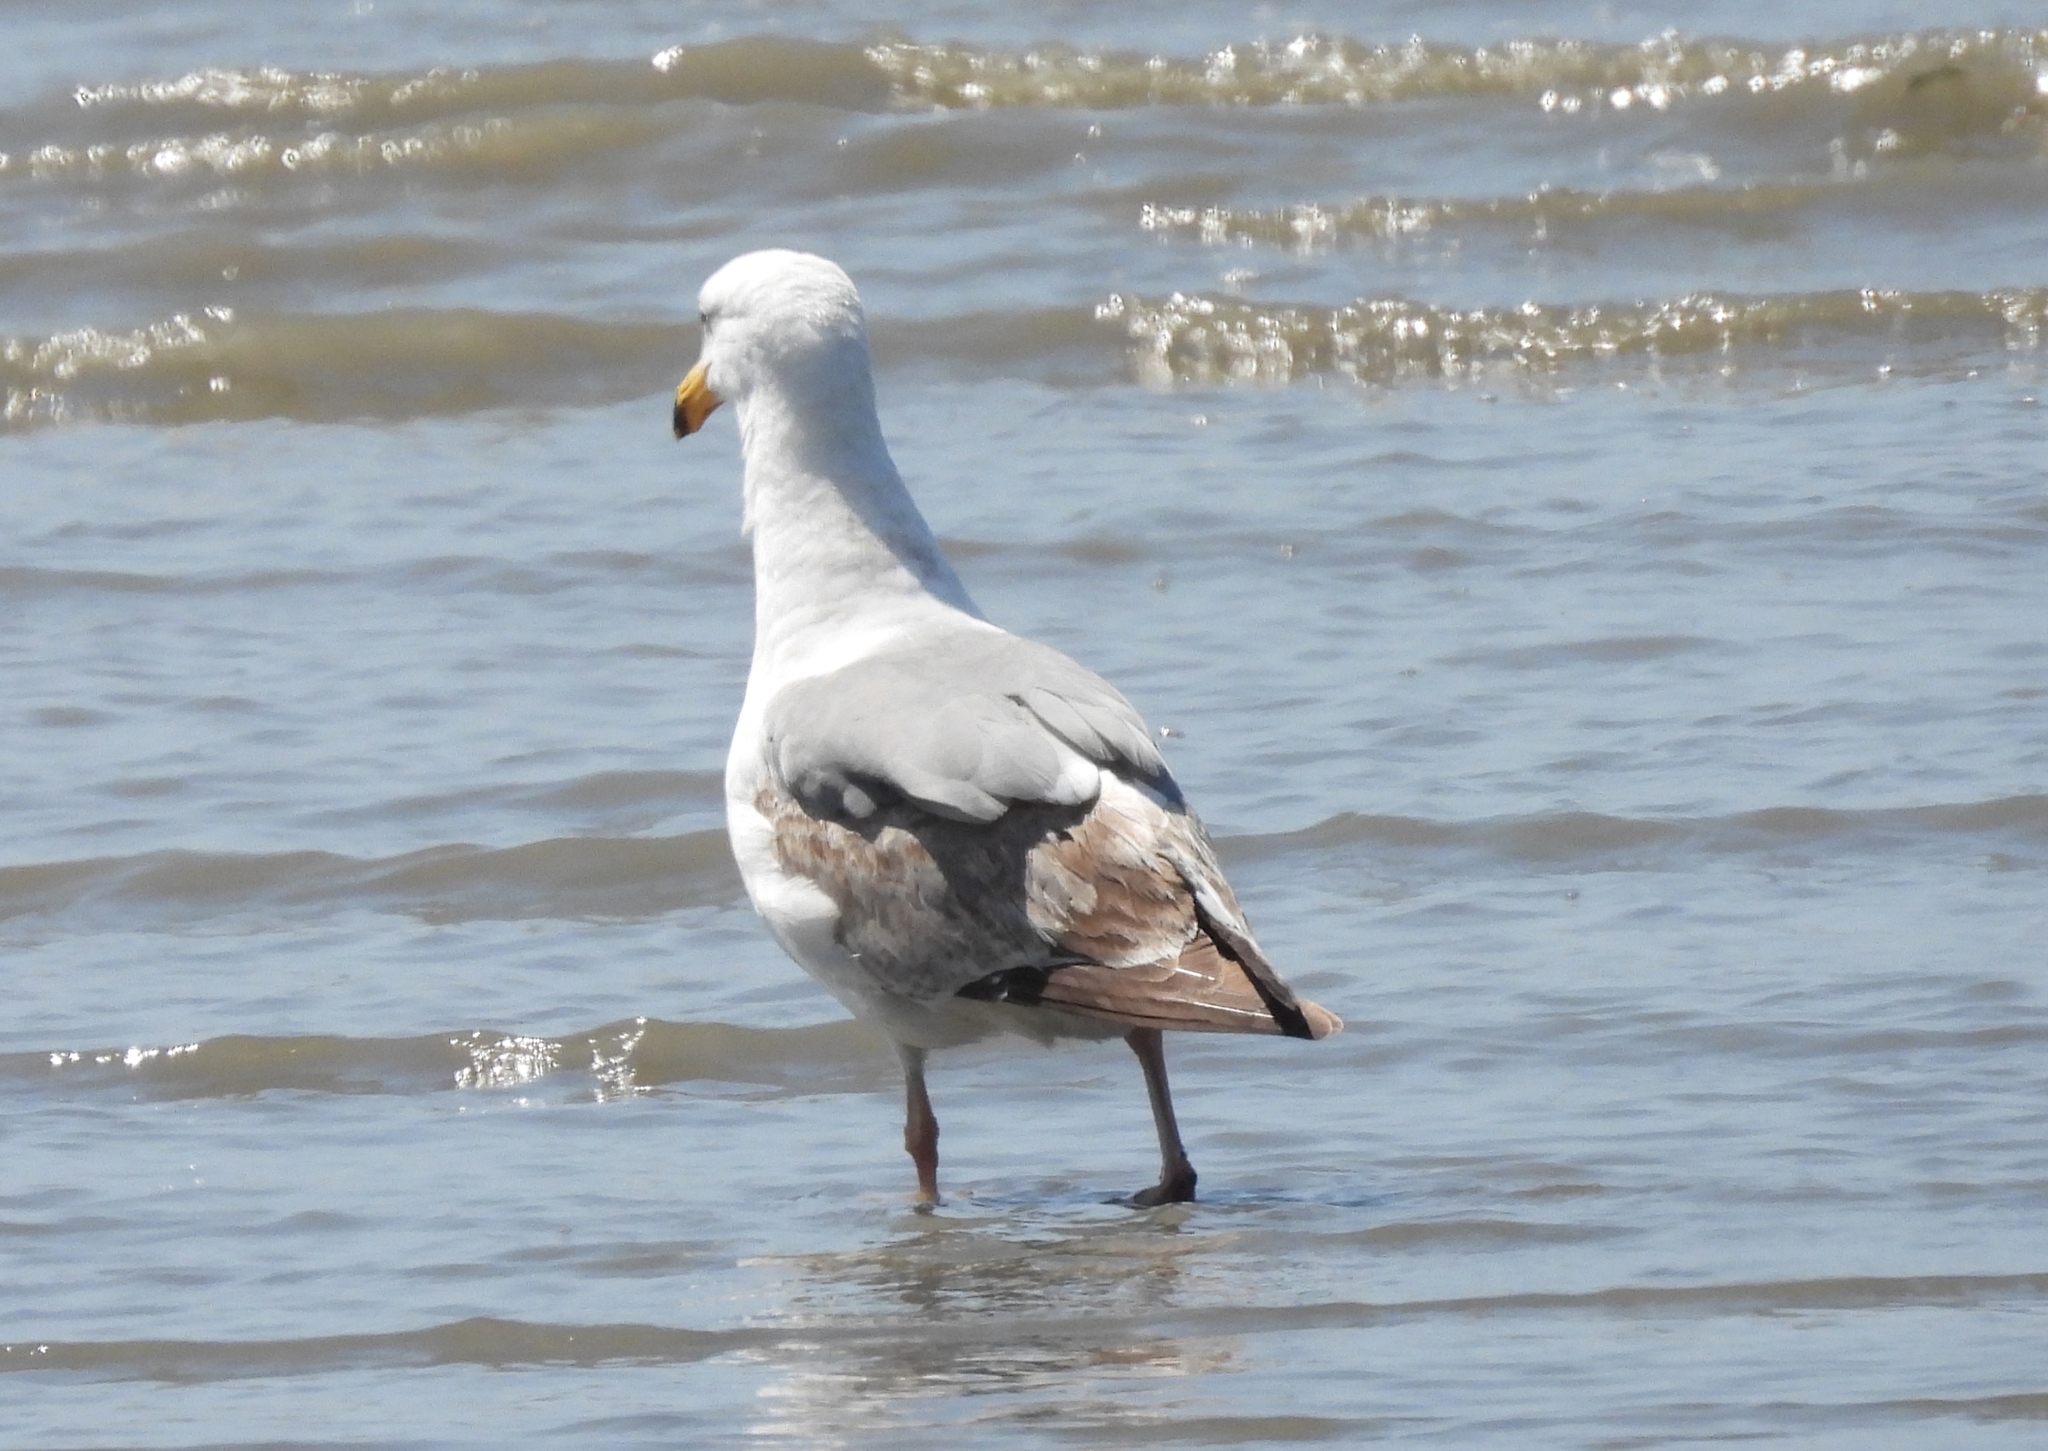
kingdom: Animalia
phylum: Chordata
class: Aves
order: Charadriiformes
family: Laridae
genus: Larus
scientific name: Larus occidentalis
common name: Western gull
